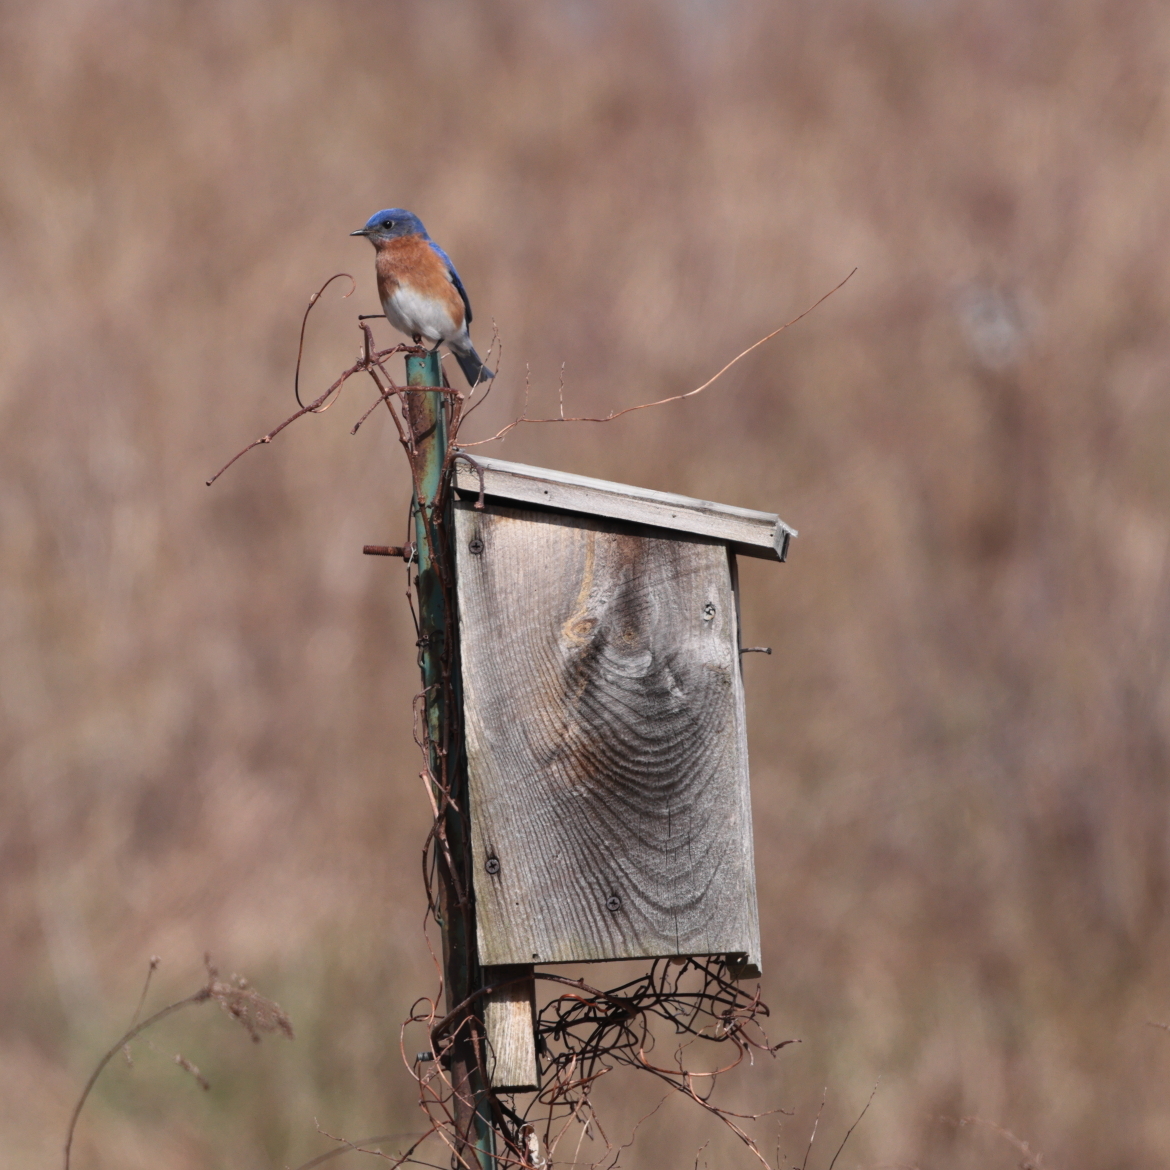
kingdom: Animalia
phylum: Chordata
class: Aves
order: Passeriformes
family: Turdidae
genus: Sialia
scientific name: Sialia sialis
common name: Eastern bluebird
